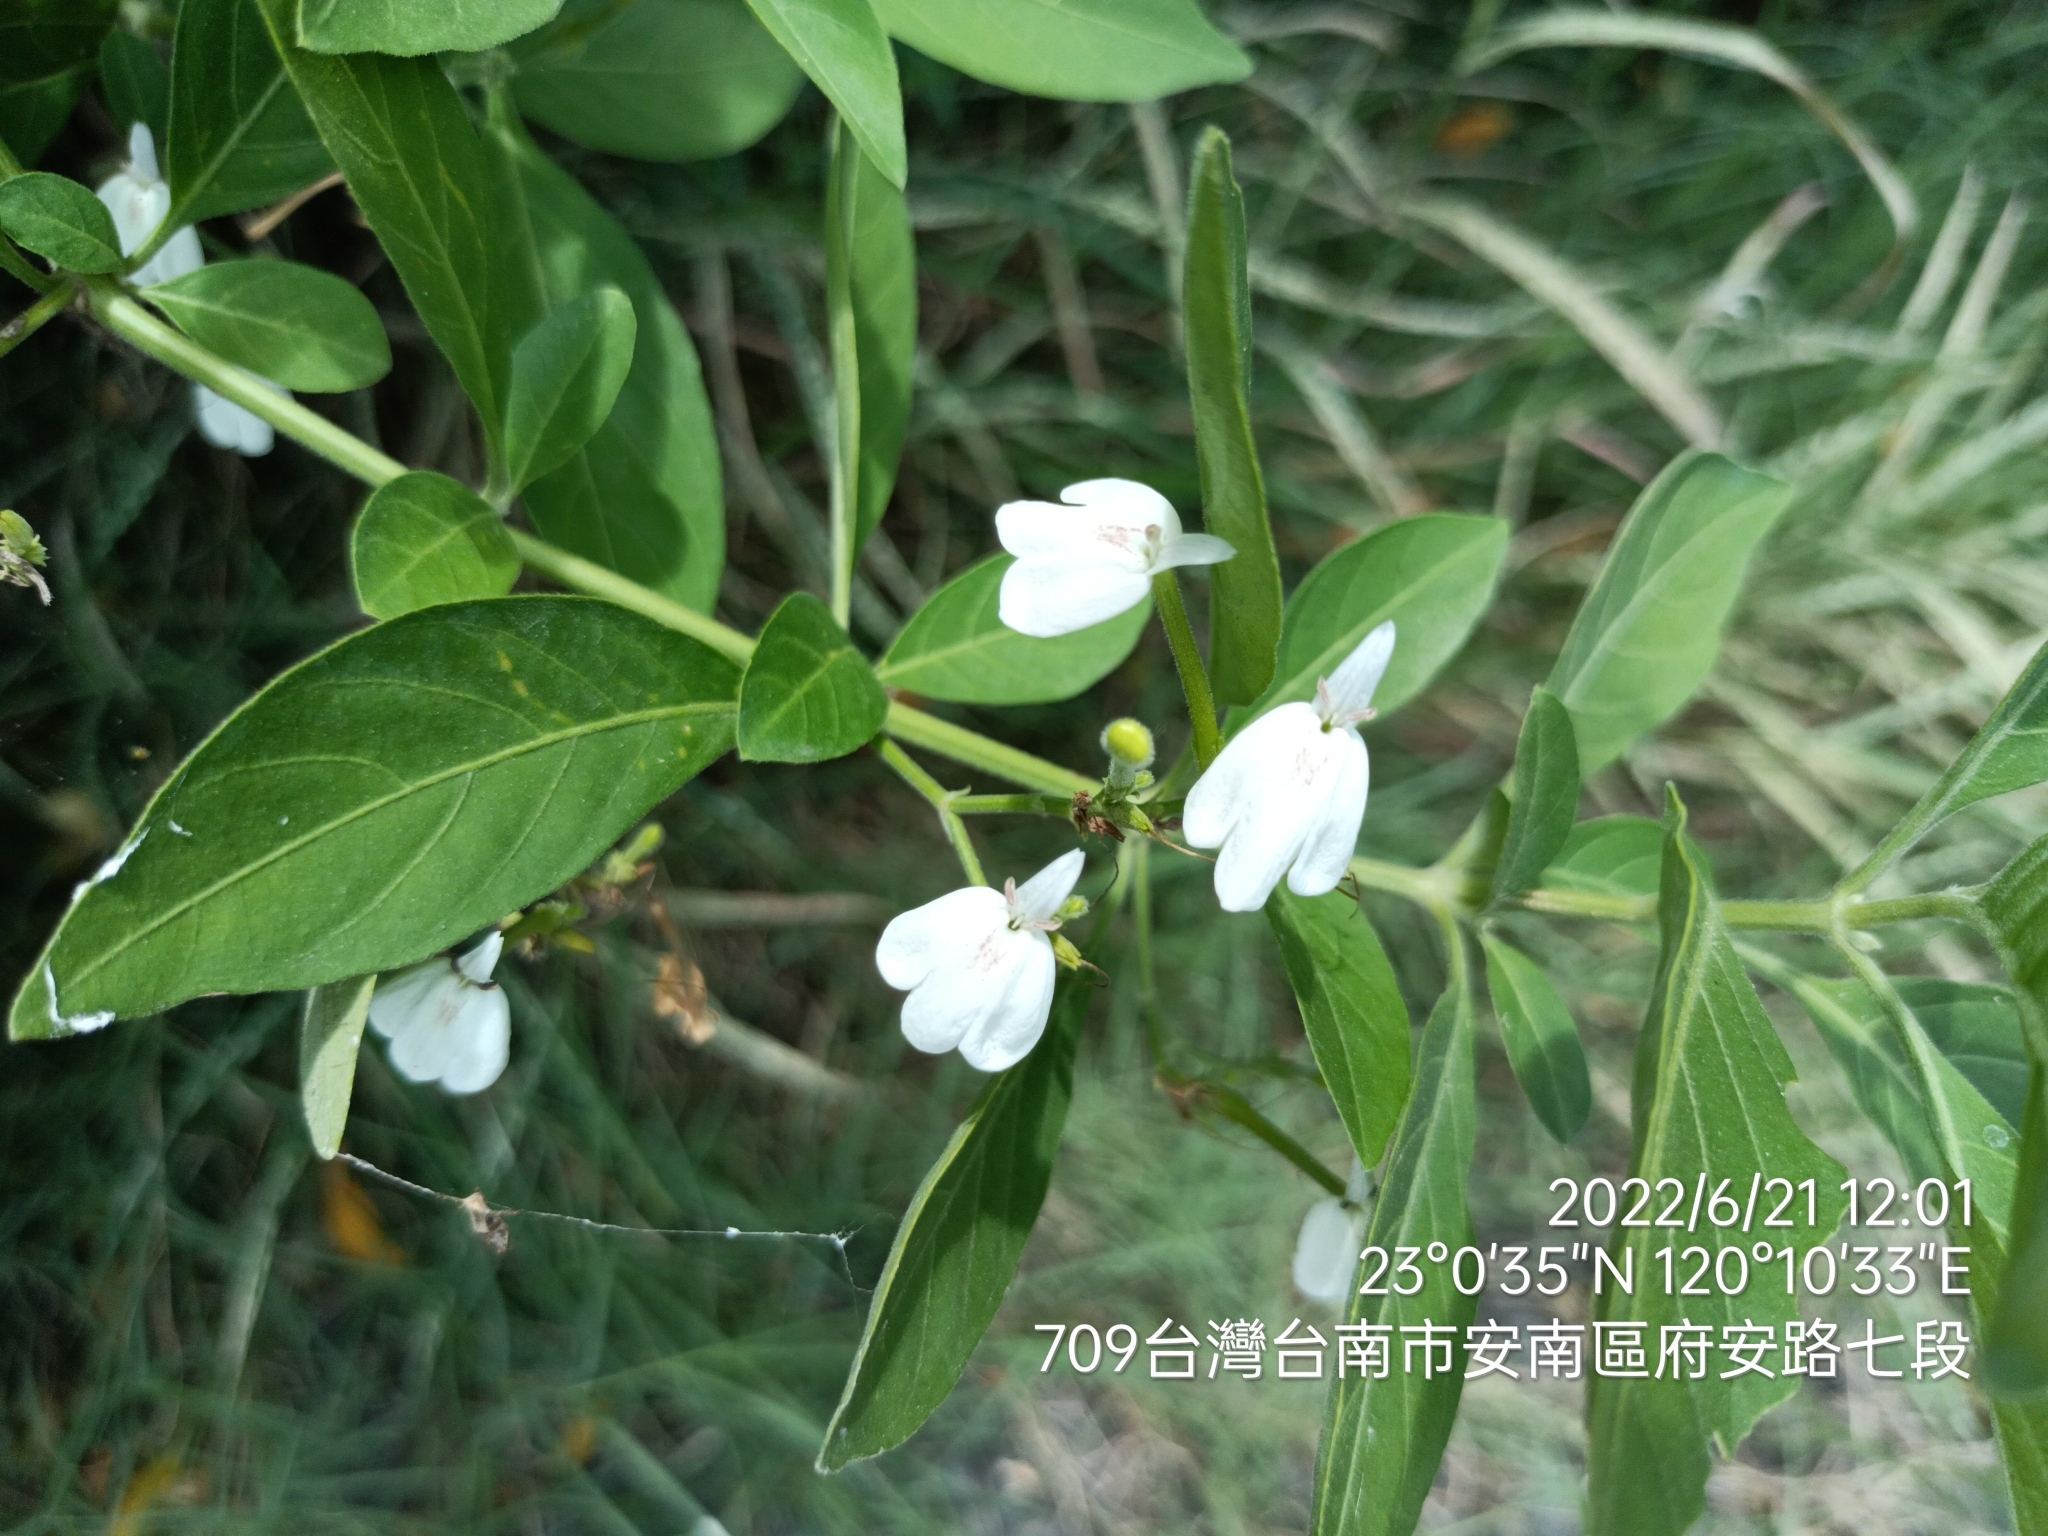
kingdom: Plantae
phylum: Tracheophyta
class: Magnoliopsida
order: Lamiales
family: Acanthaceae
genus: Rhinacanthus
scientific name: Rhinacanthus nasutus
